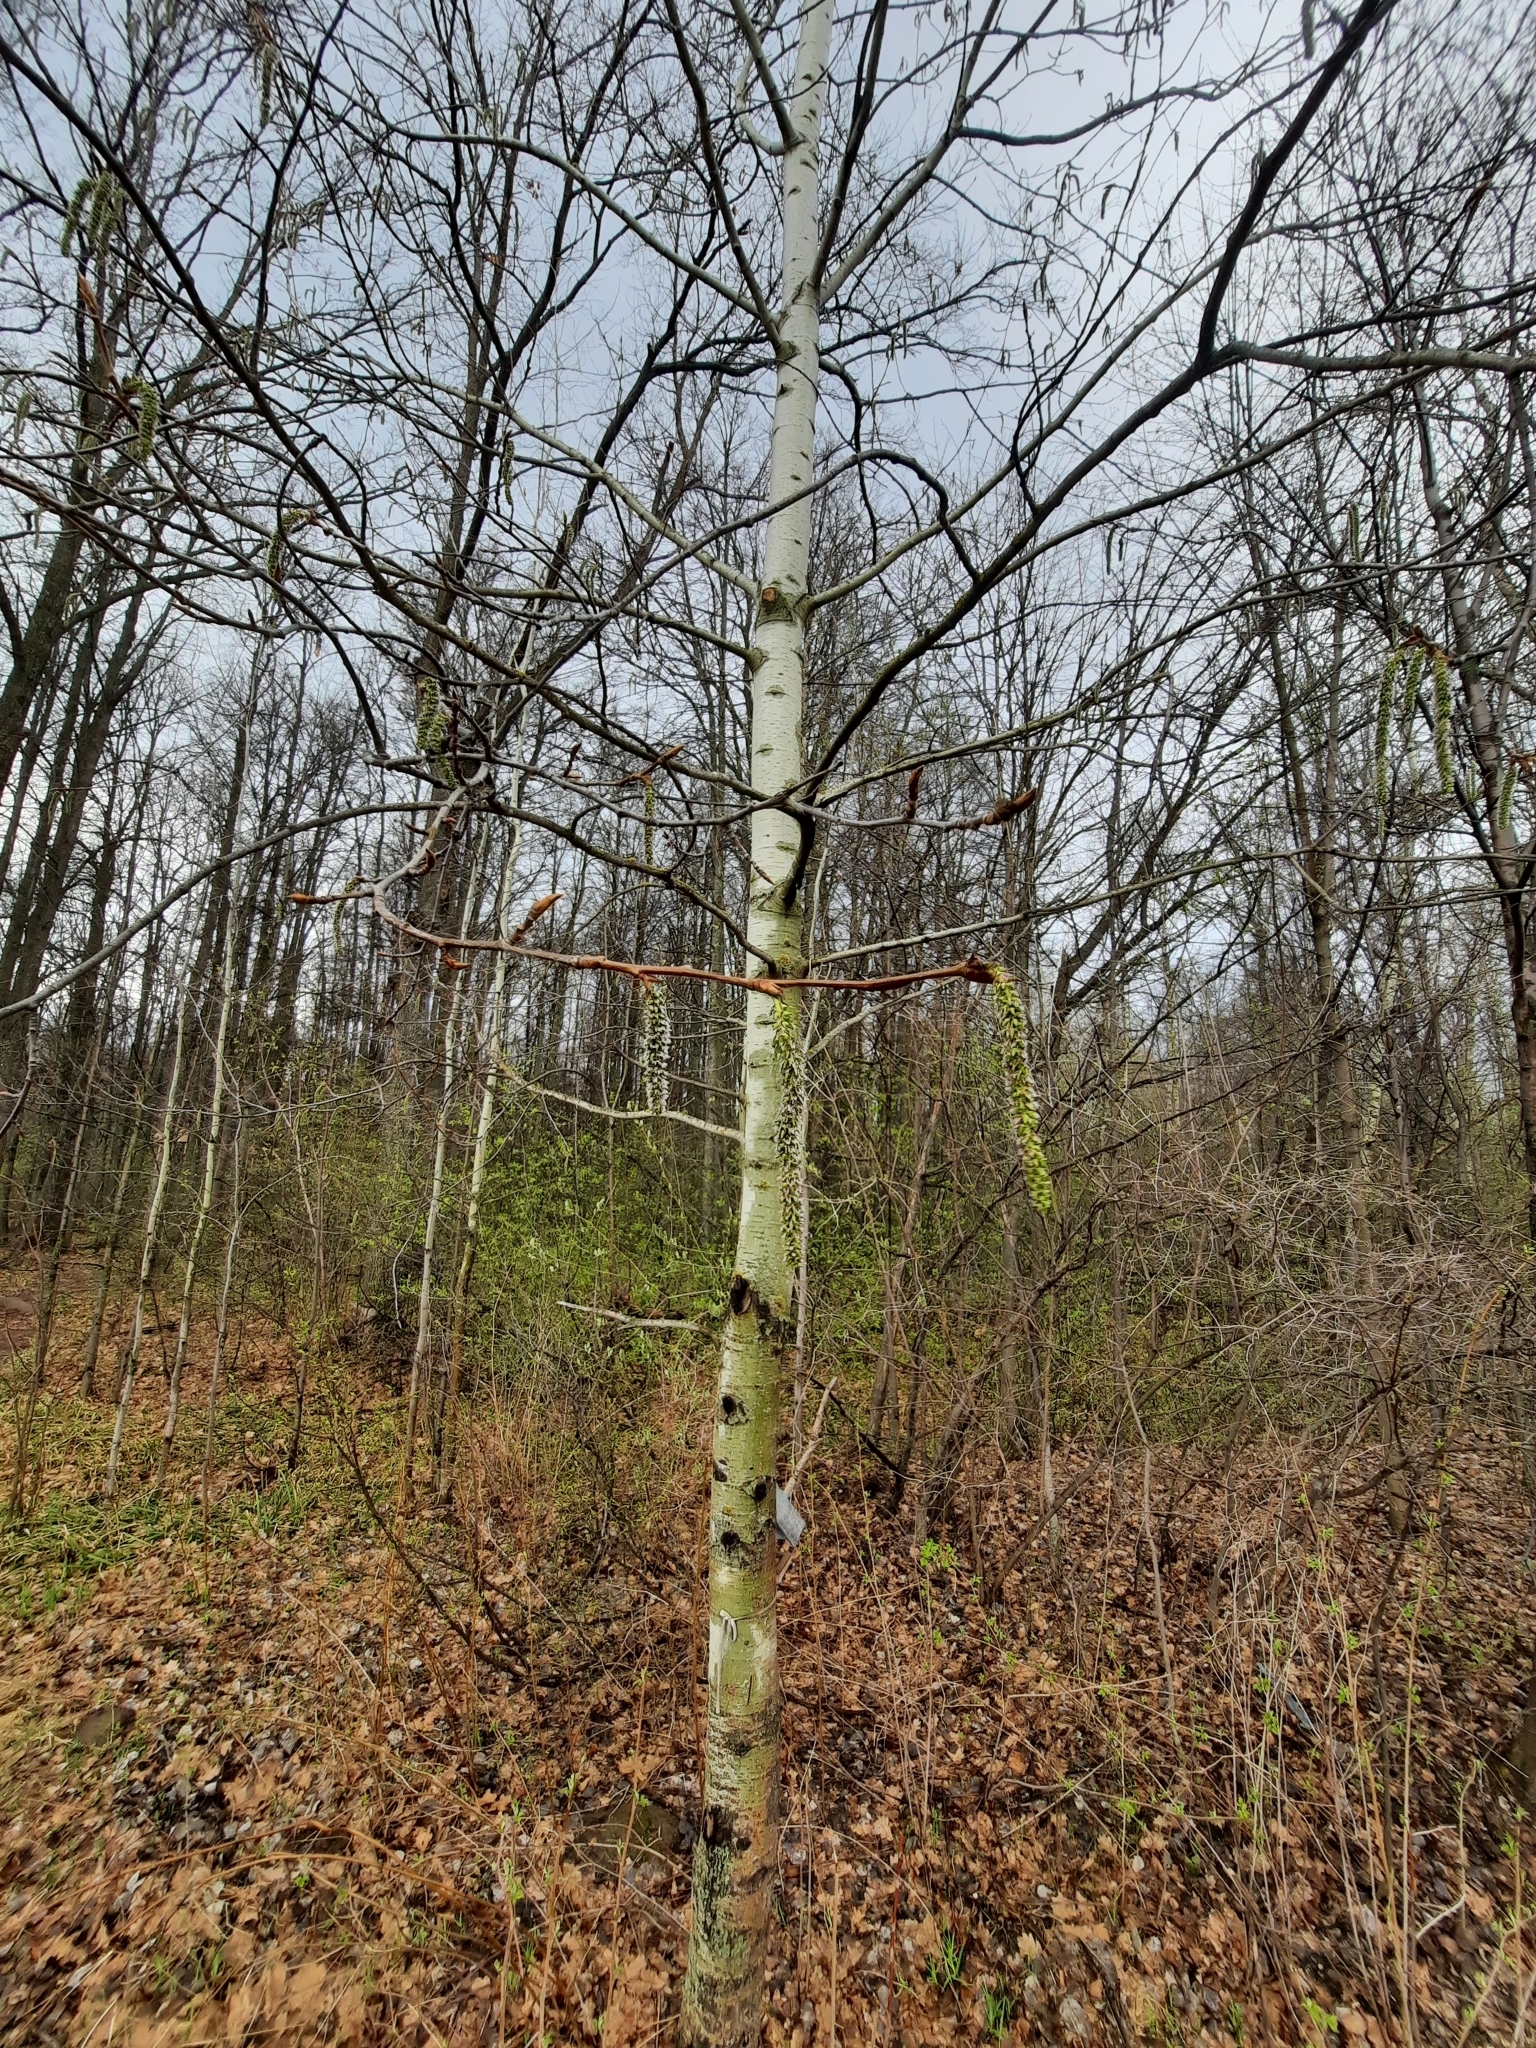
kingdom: Plantae
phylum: Tracheophyta
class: Magnoliopsida
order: Malpighiales
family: Salicaceae
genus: Populus
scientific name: Populus tremula
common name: European aspen
